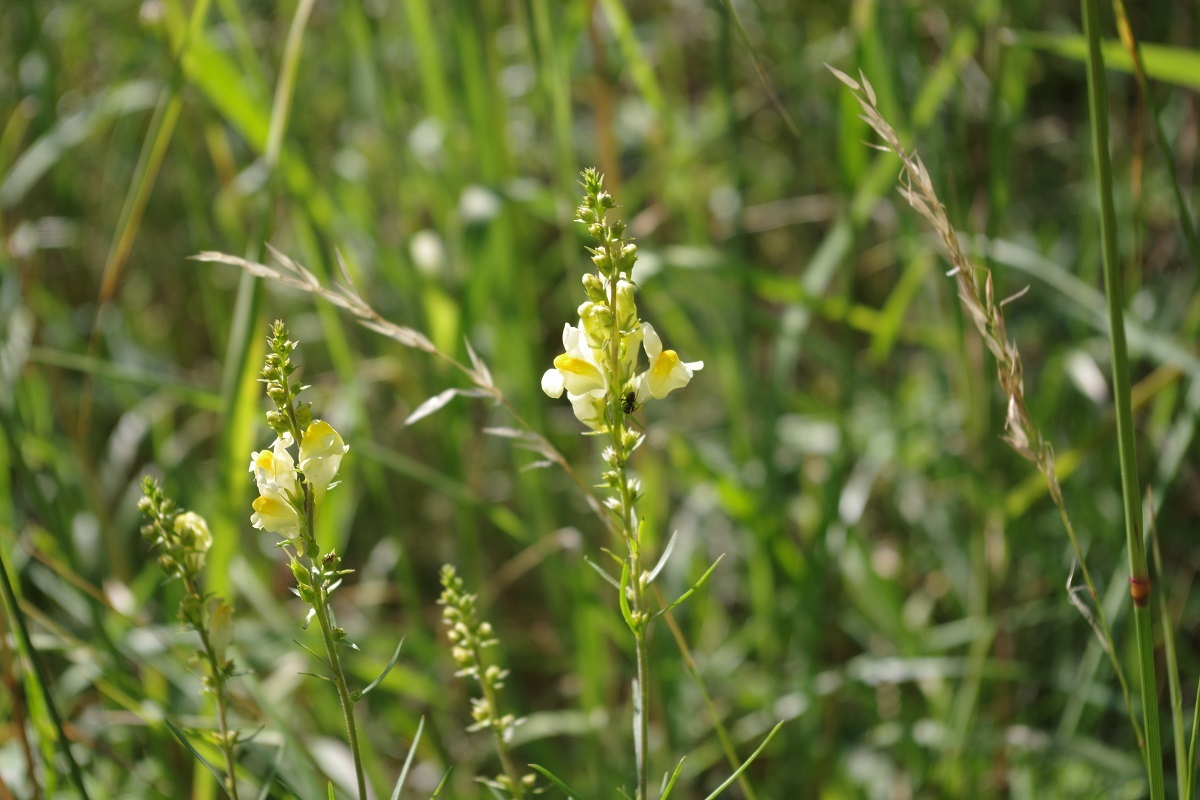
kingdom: Plantae
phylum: Tracheophyta
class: Magnoliopsida
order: Lamiales
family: Plantaginaceae
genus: Linaria
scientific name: Linaria vulgaris
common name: Butter and eggs
